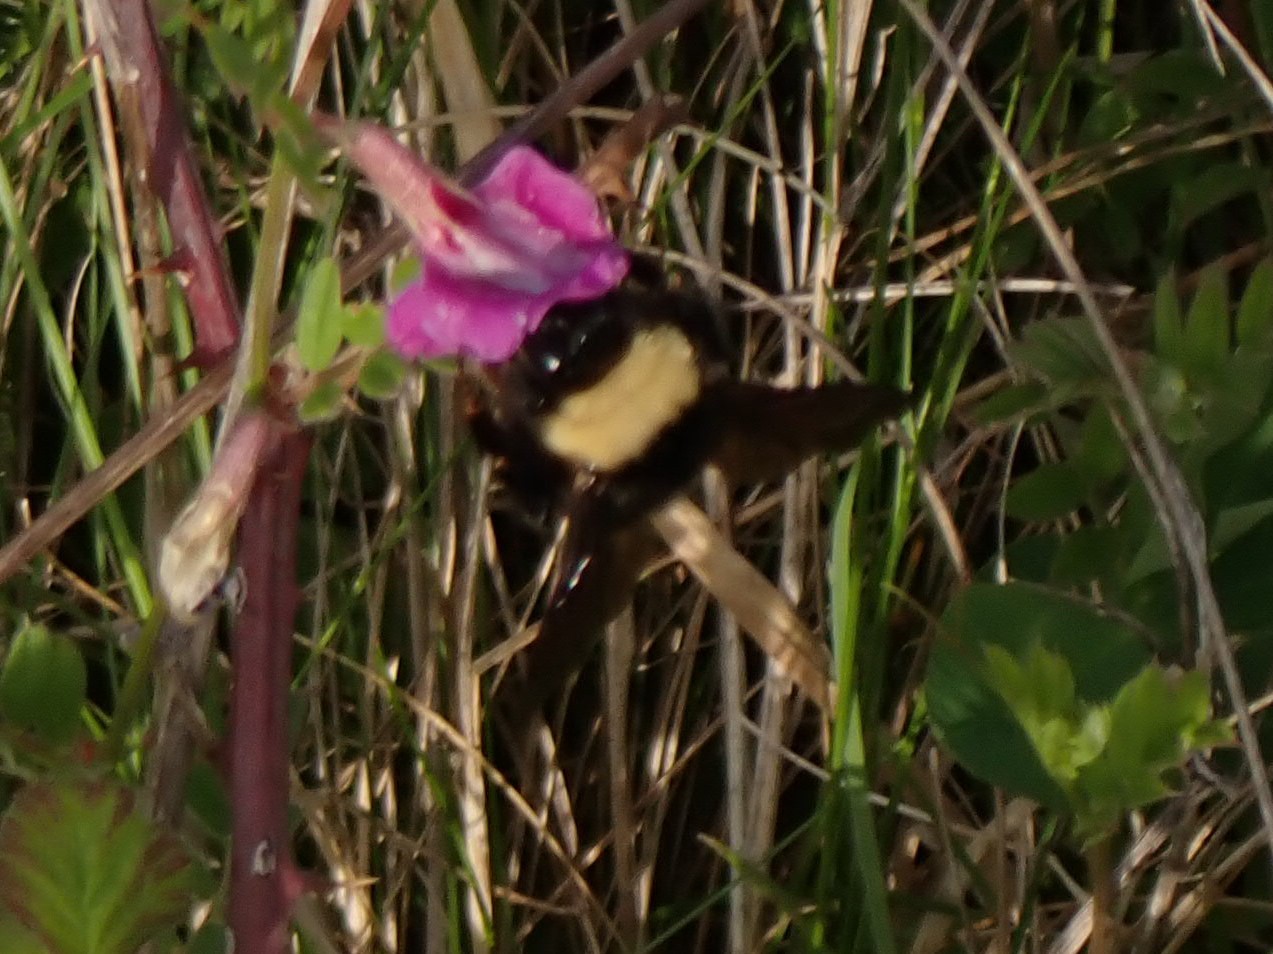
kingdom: Animalia
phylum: Arthropoda
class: Insecta
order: Hymenoptera
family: Apidae
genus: Bombus
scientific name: Bombus californicus
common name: California bumble bee
